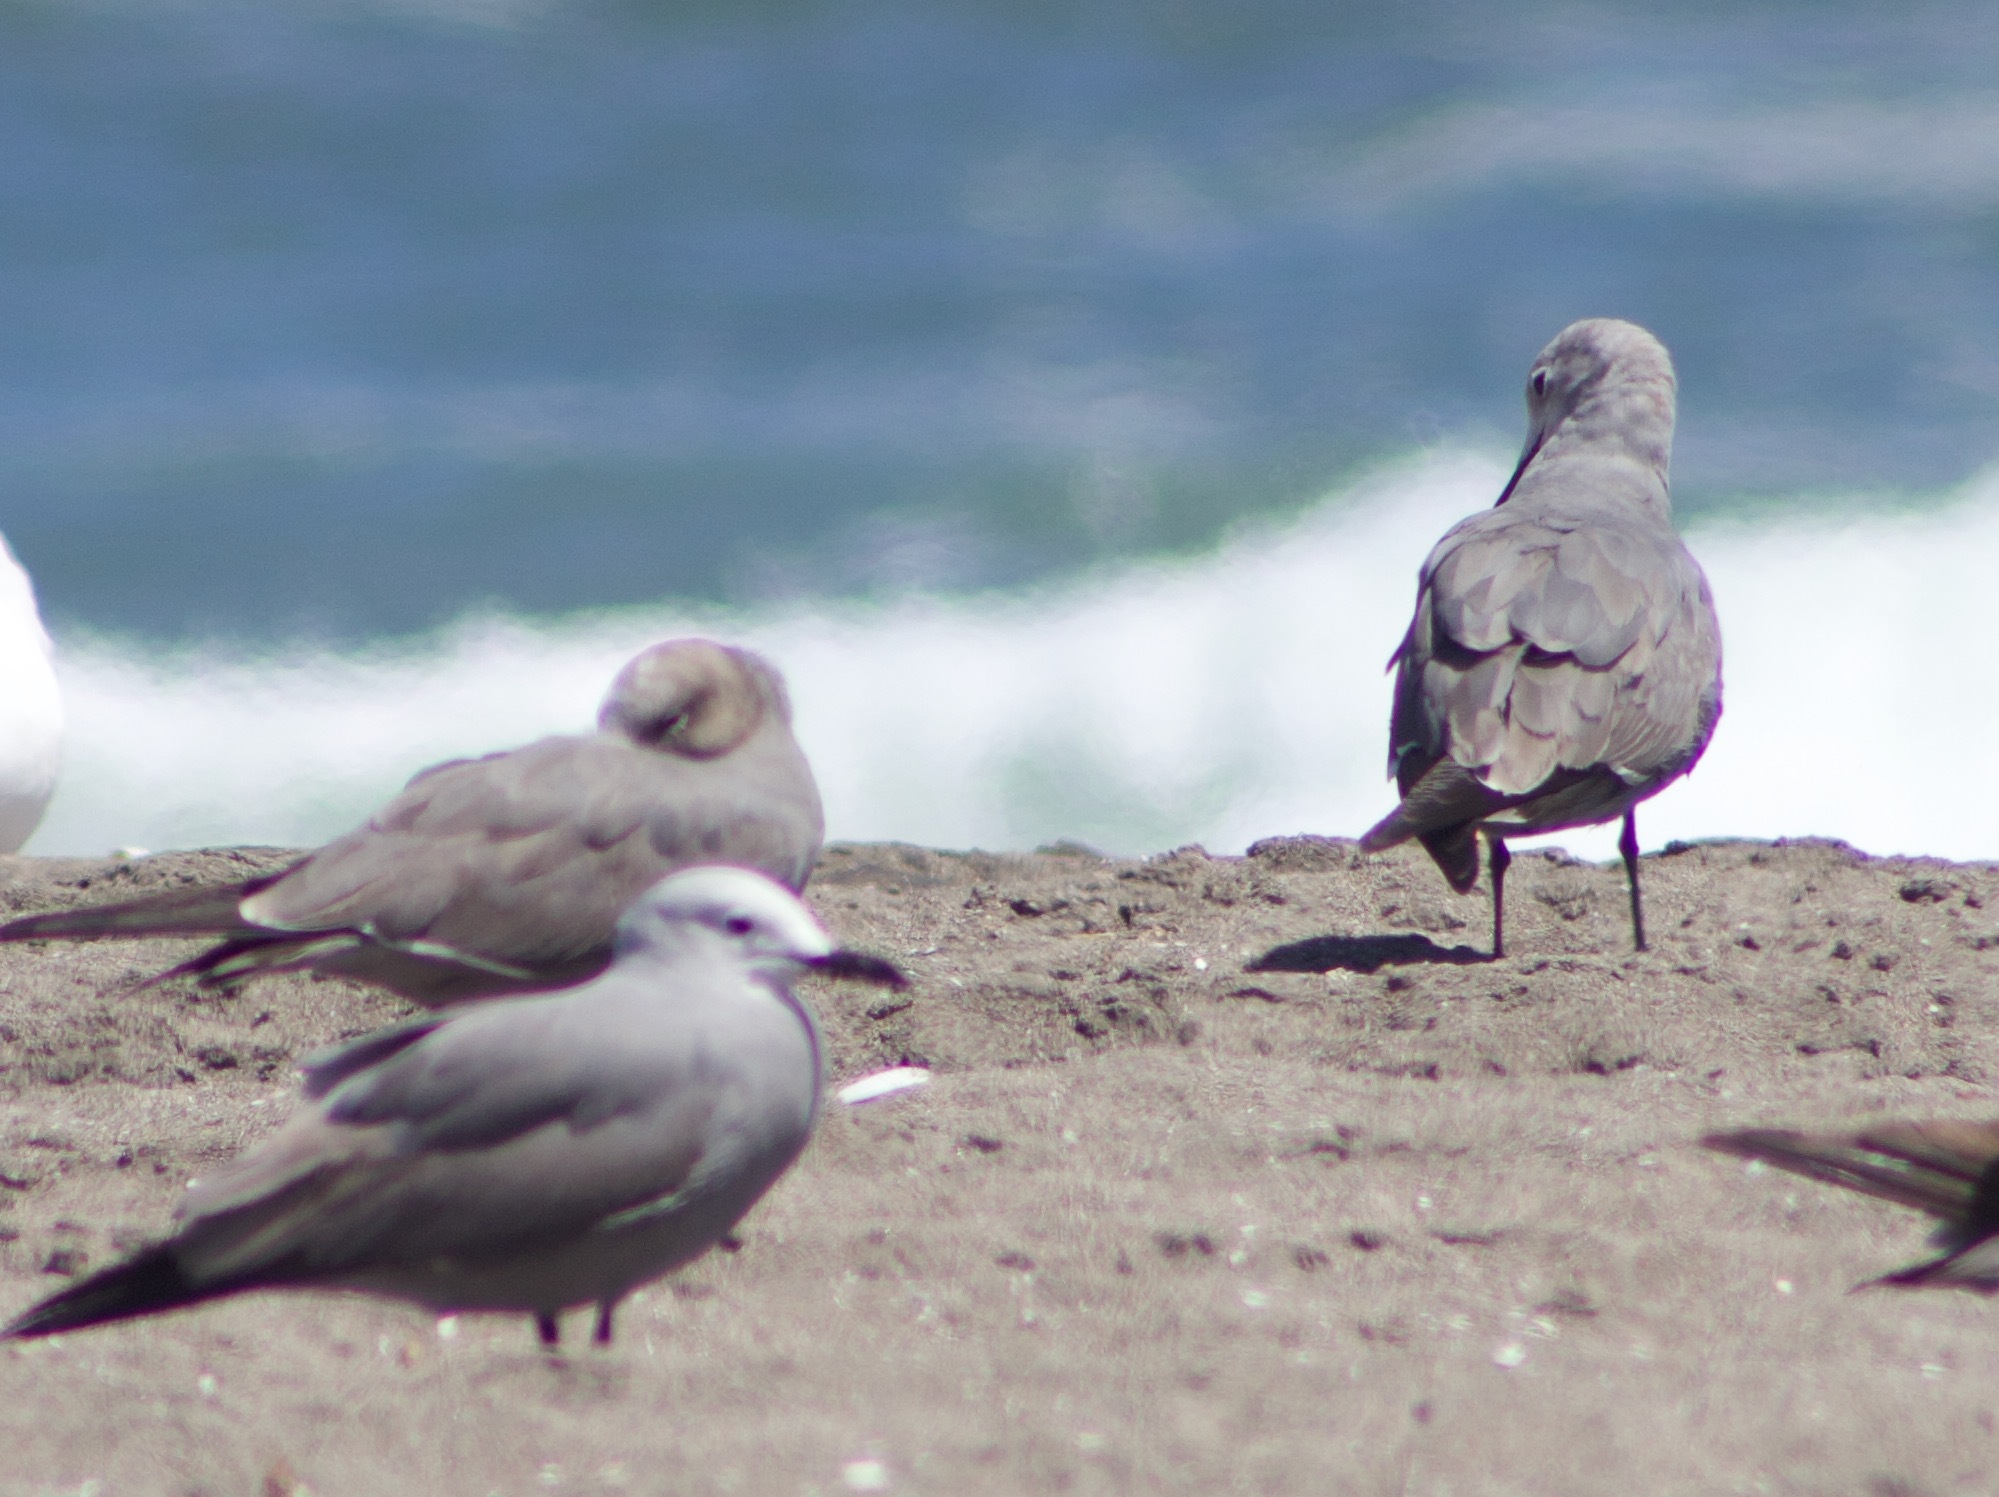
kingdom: Animalia
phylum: Chordata
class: Aves
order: Charadriiformes
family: Laridae
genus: Leucophaeus
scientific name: Leucophaeus modestus
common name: Gray gull
